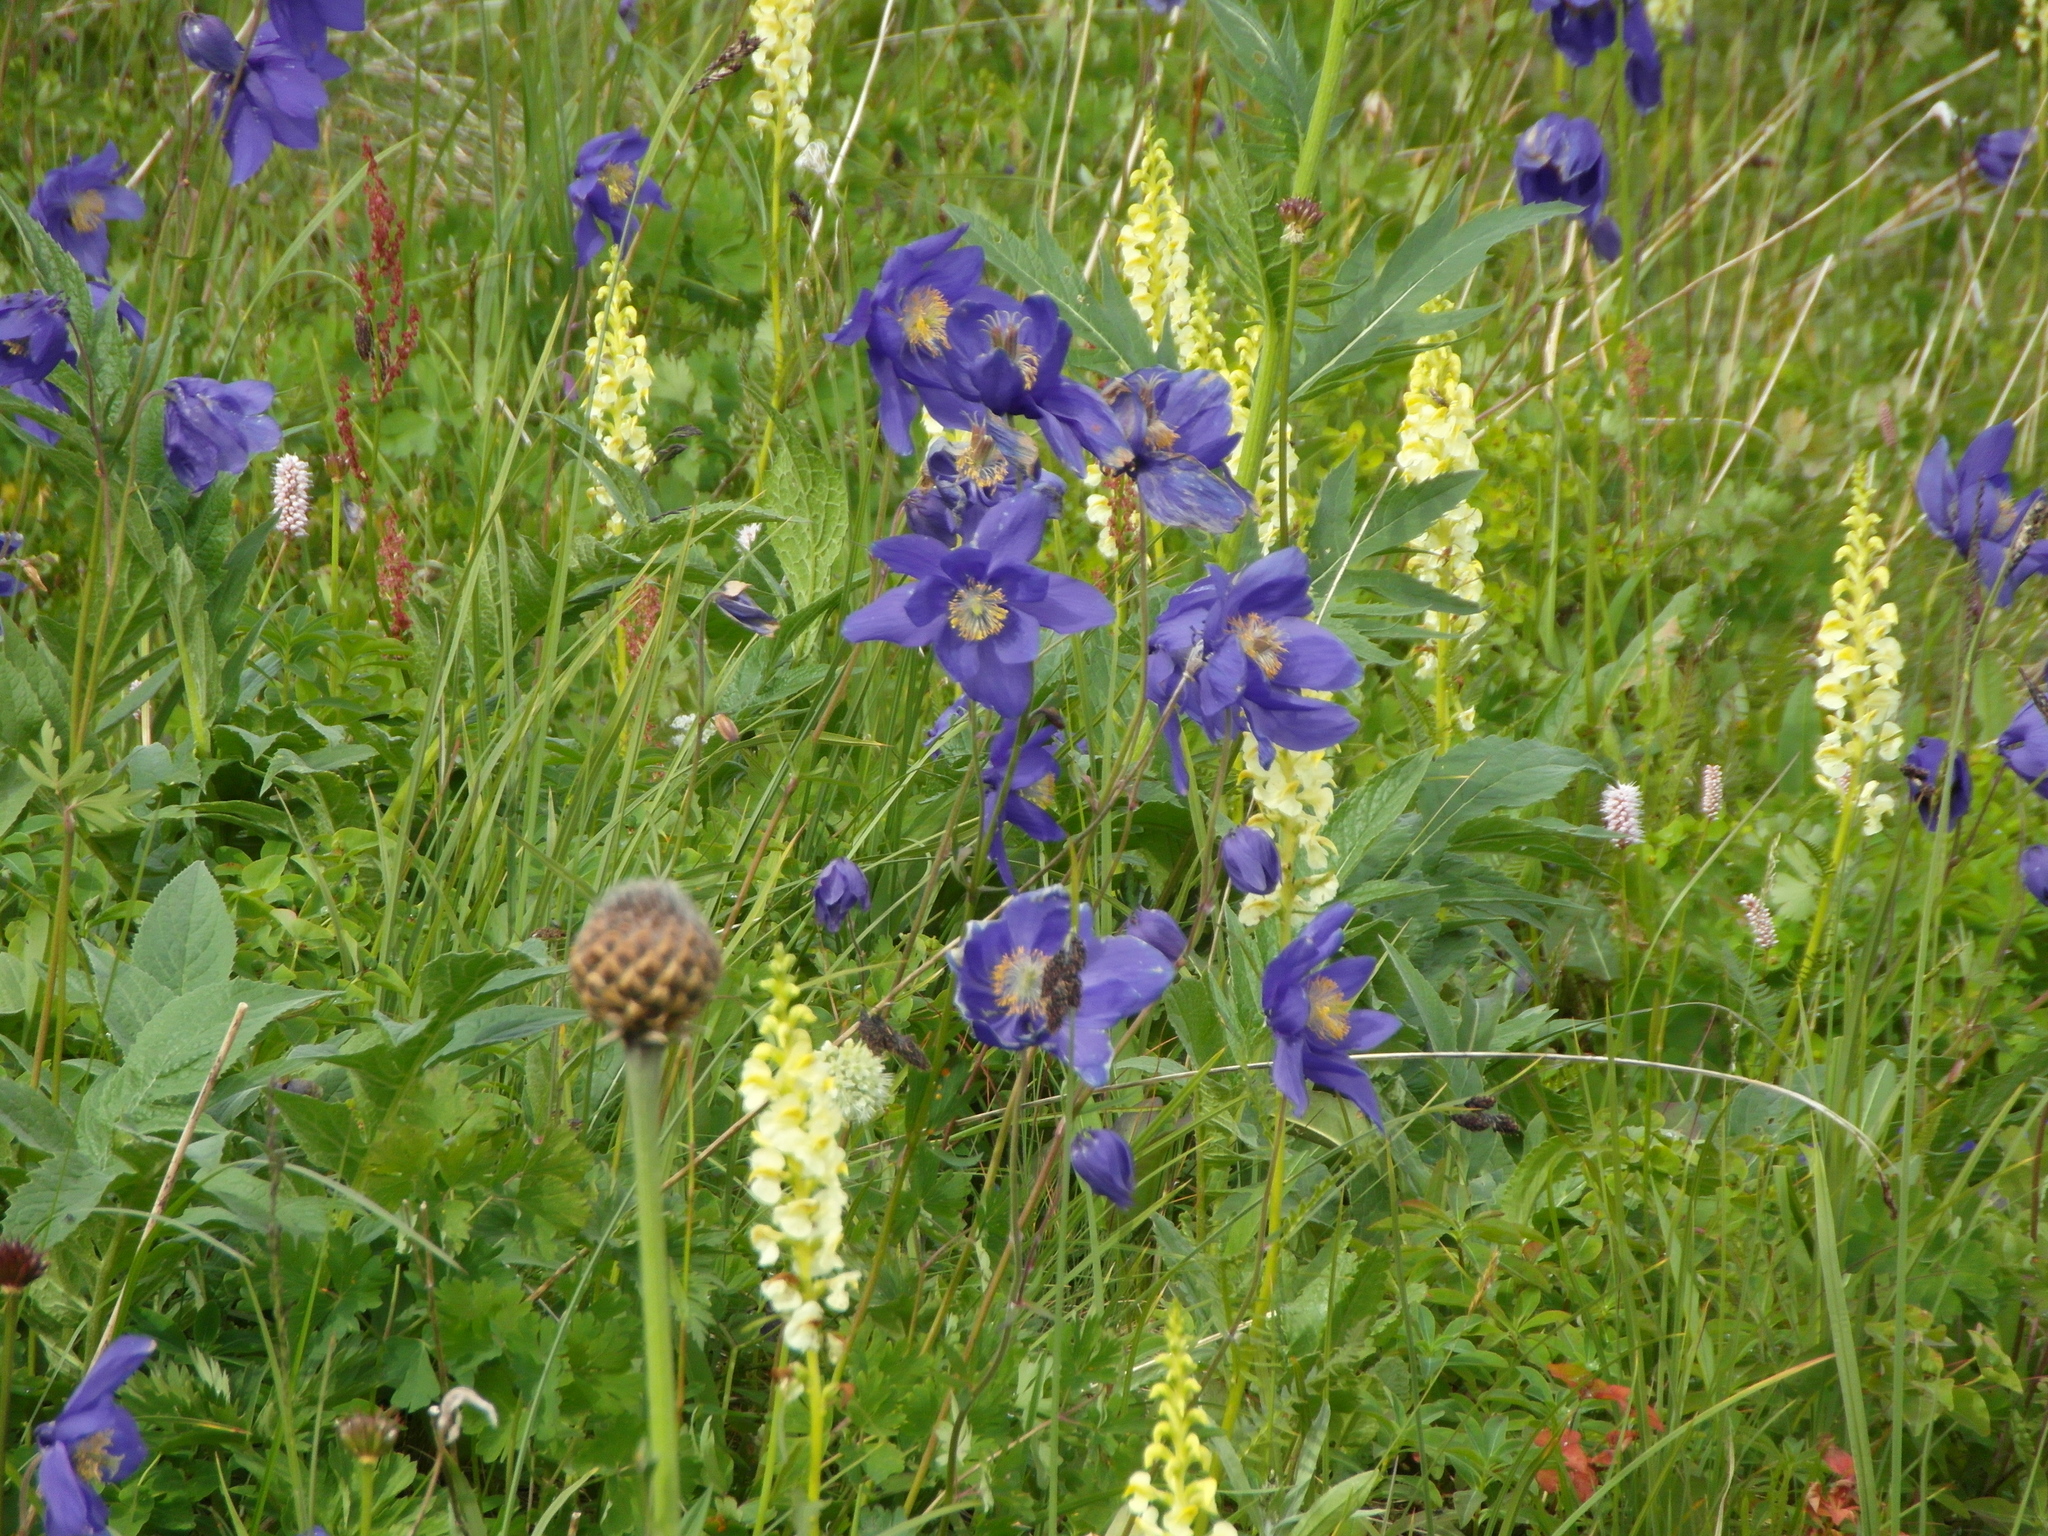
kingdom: Plantae
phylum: Tracheophyta
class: Magnoliopsida
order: Ranunculales
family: Ranunculaceae
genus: Aquilegia
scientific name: Aquilegia glandulosa
